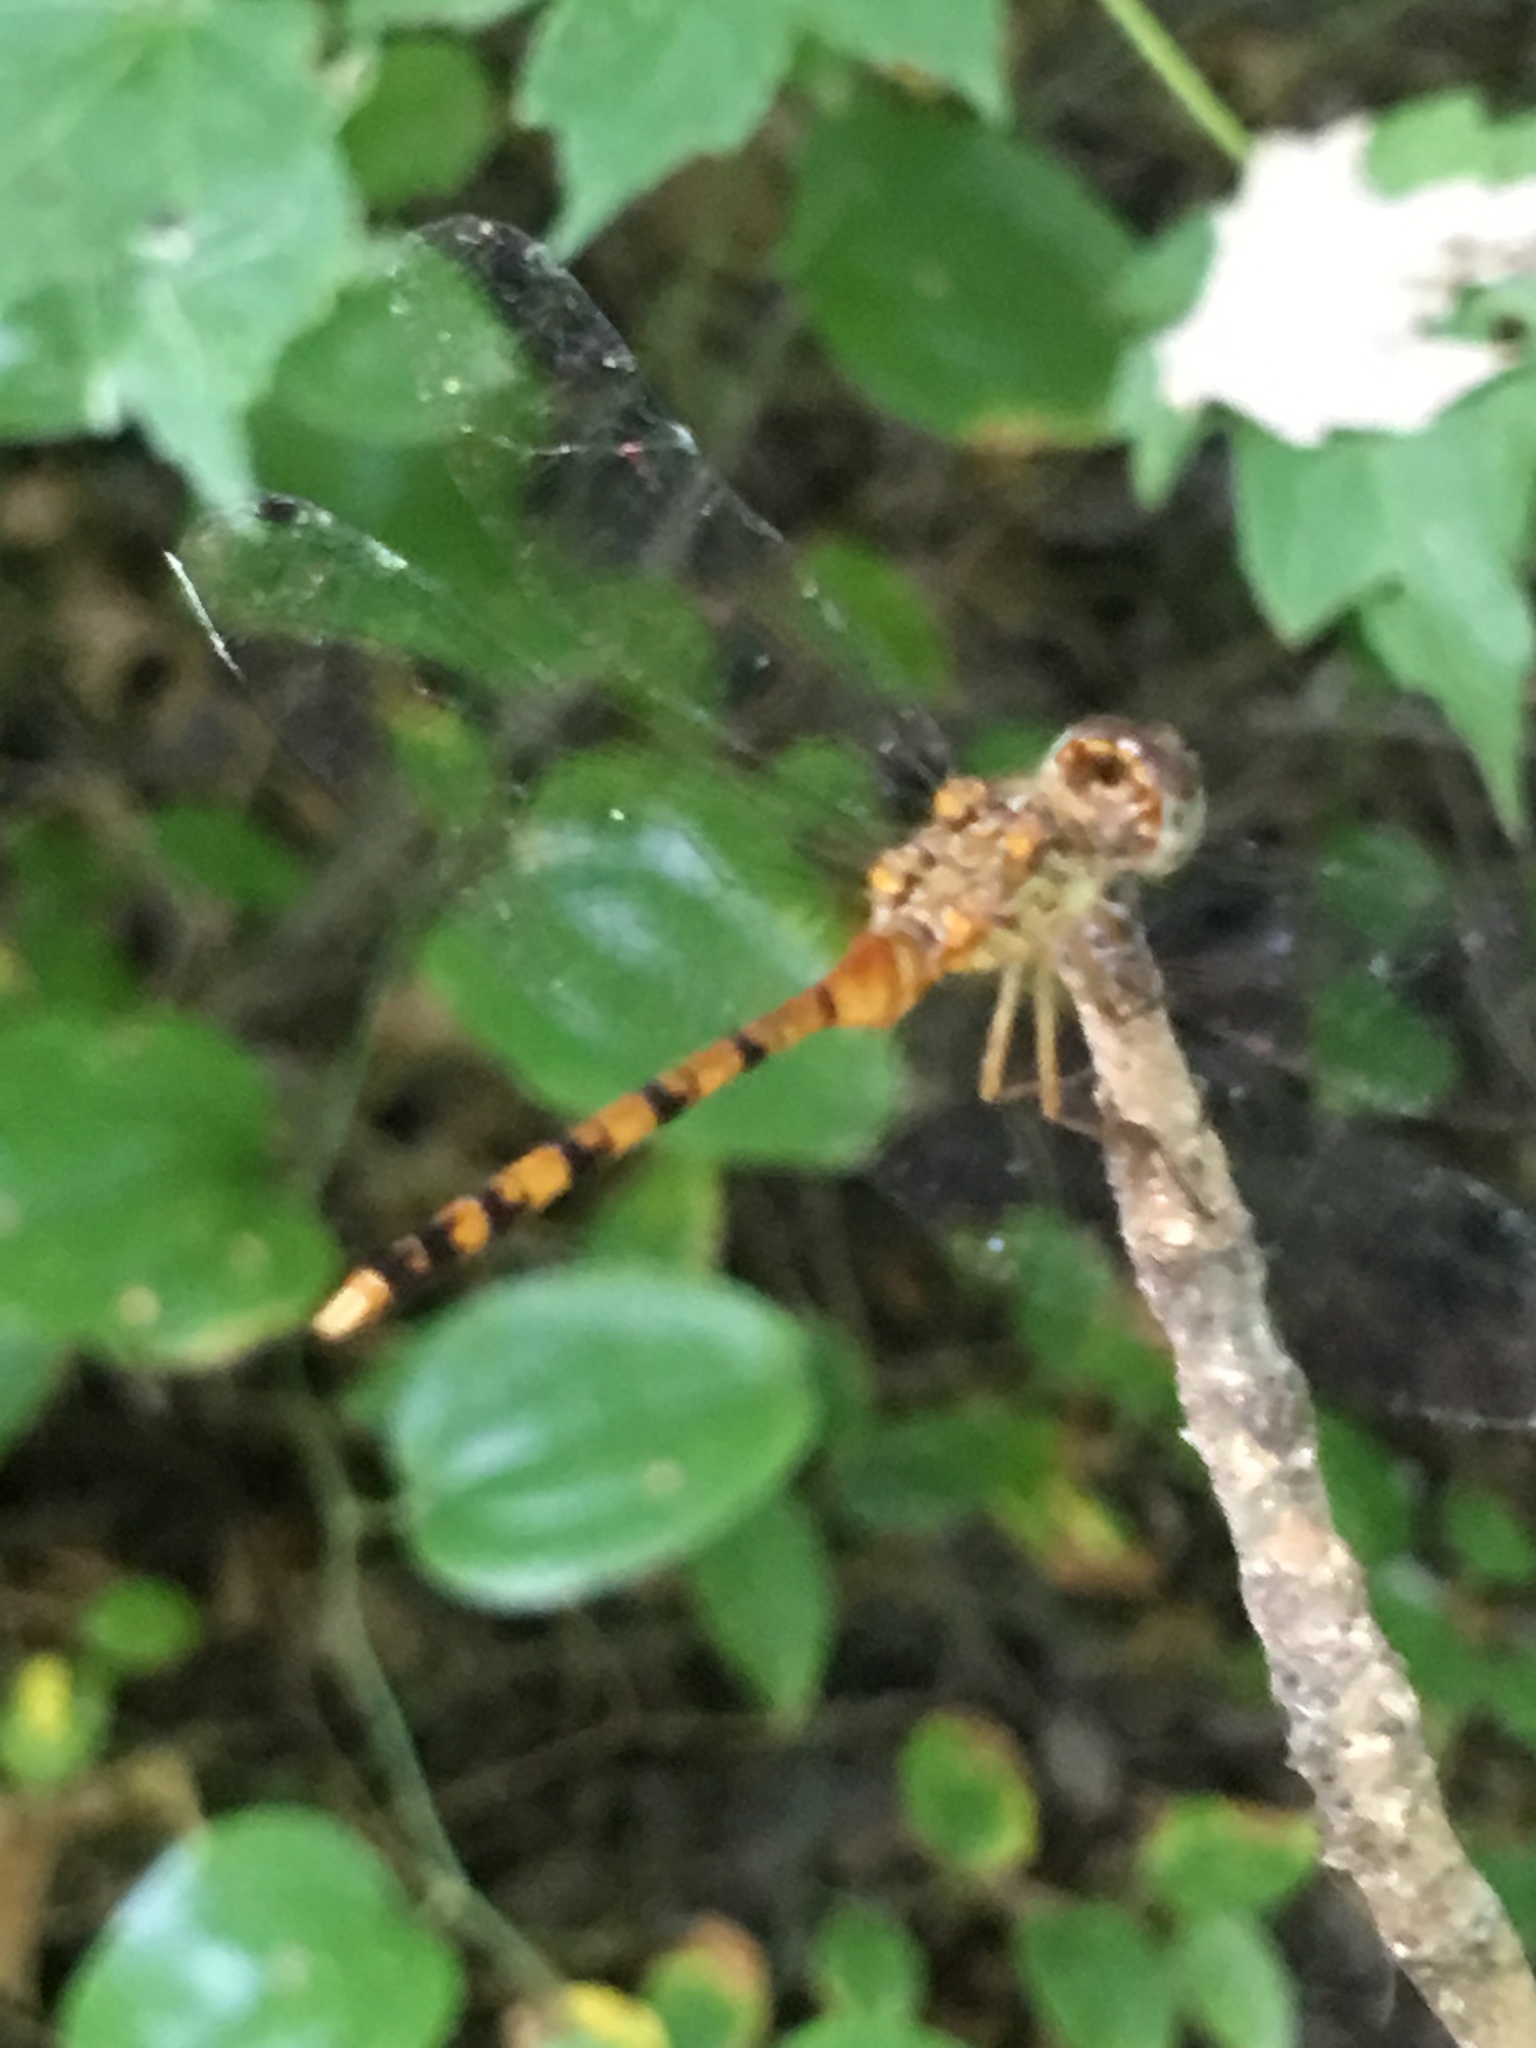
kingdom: Animalia
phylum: Arthropoda
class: Insecta
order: Odonata
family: Libellulidae
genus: Sympetrum
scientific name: Sympetrum ambiguum
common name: Blue-faced meadowhawk
